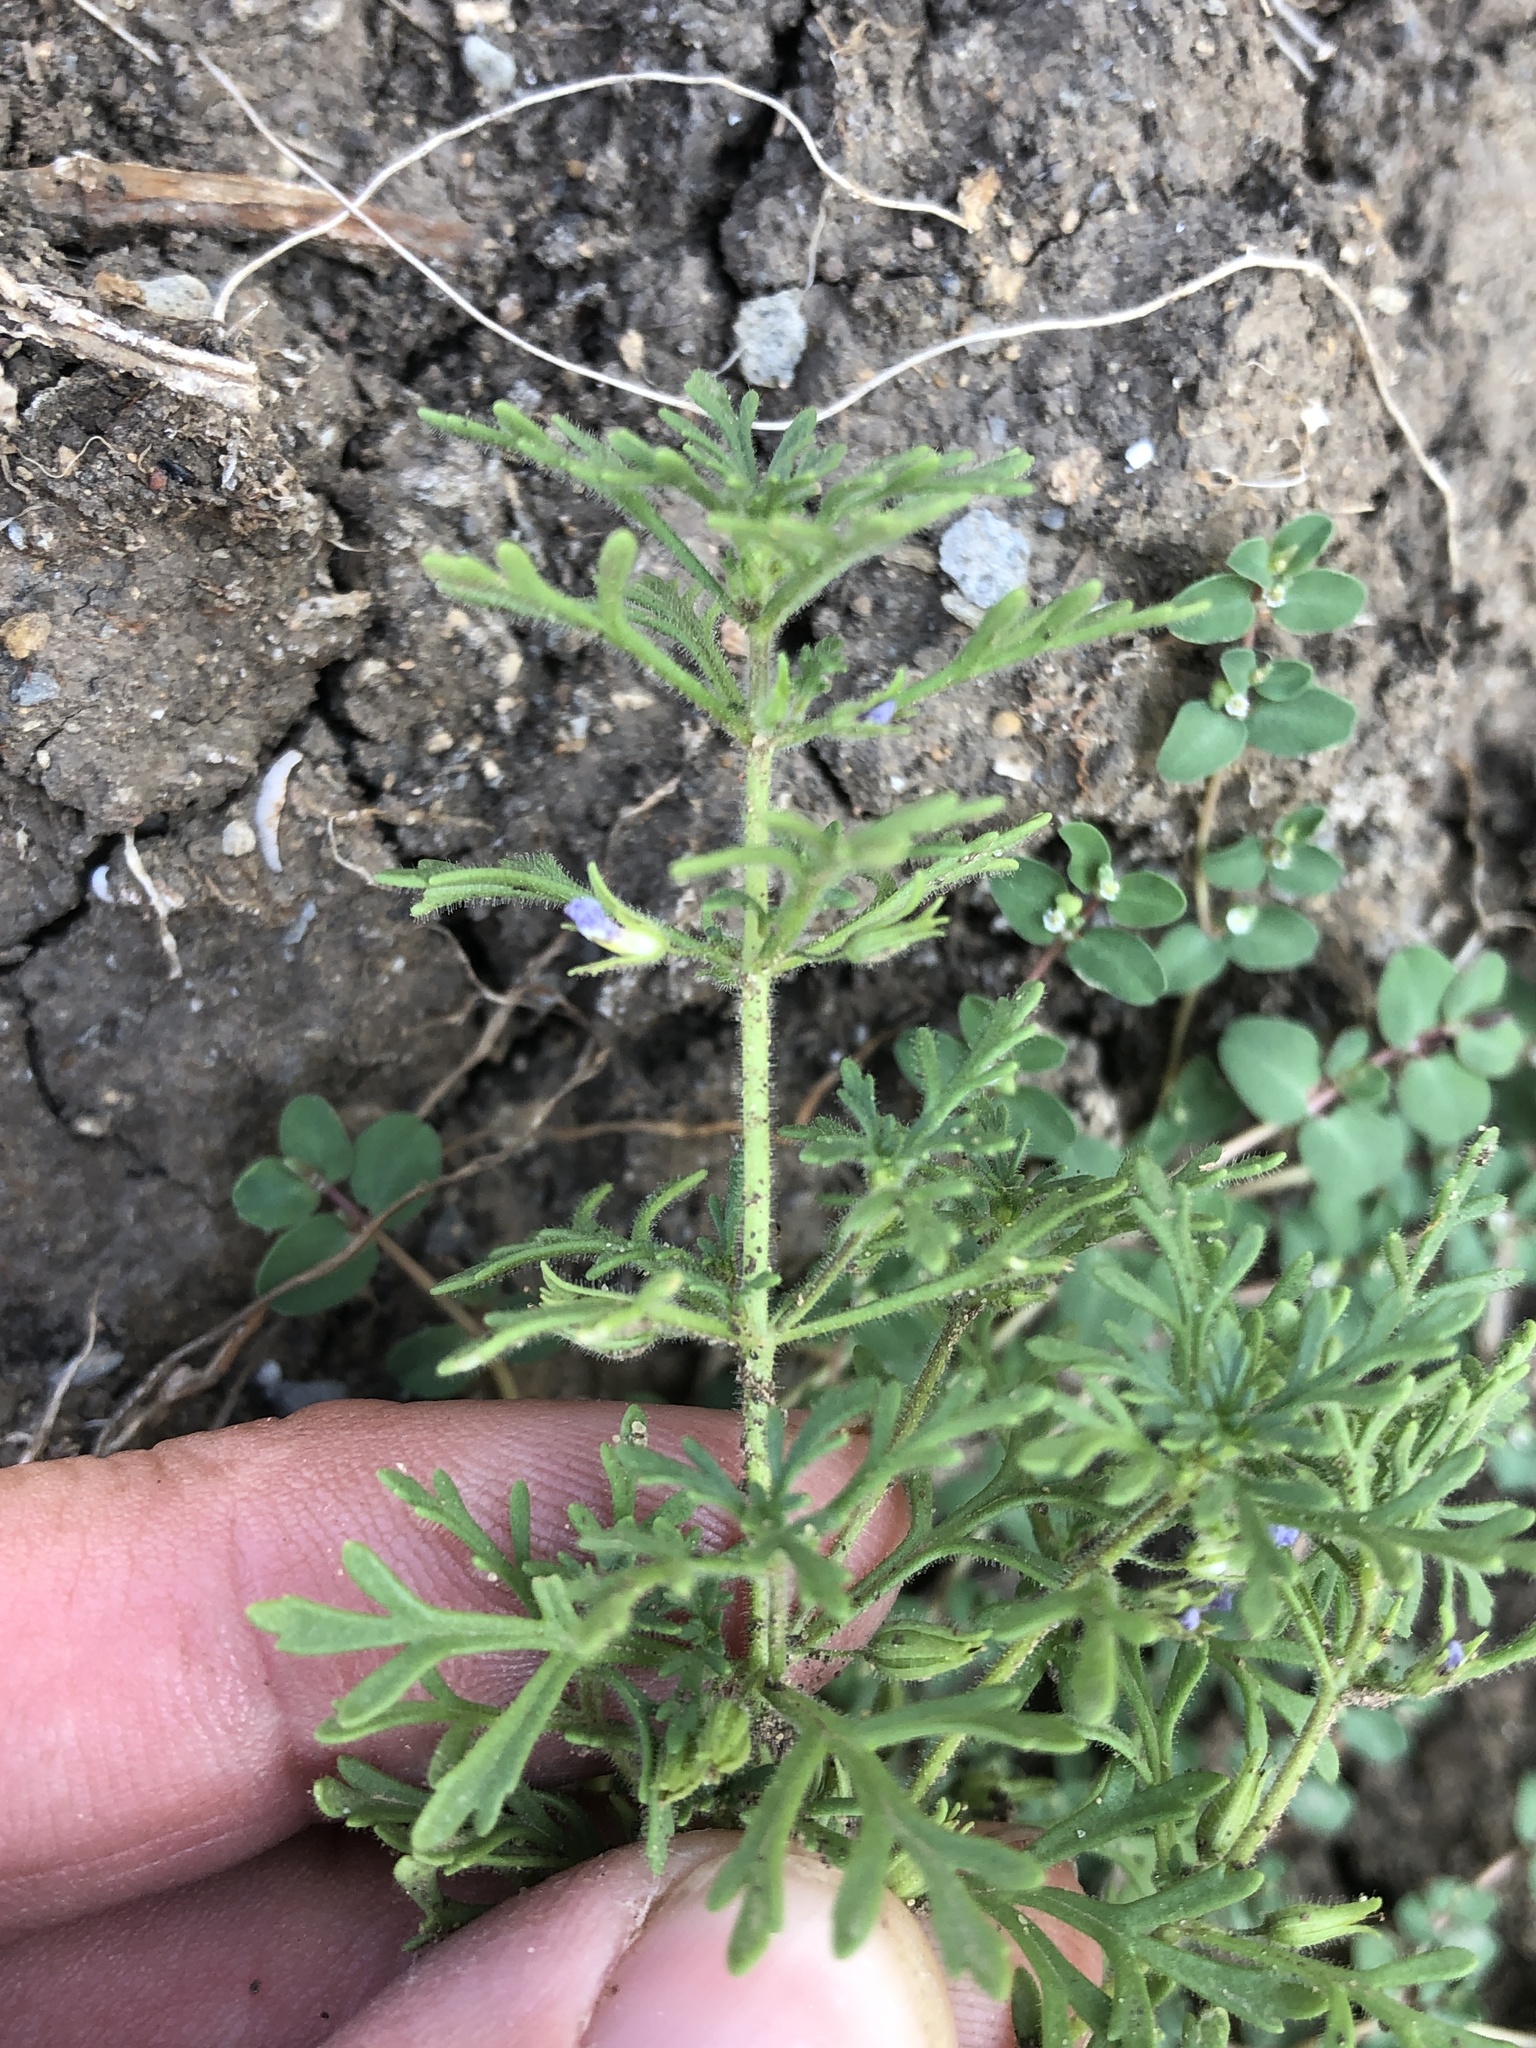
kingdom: Plantae
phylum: Tracheophyta
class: Magnoliopsida
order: Lamiales
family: Plantaginaceae
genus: Leucospora
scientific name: Leucospora multifida
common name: Narrow-leaf paleseed
